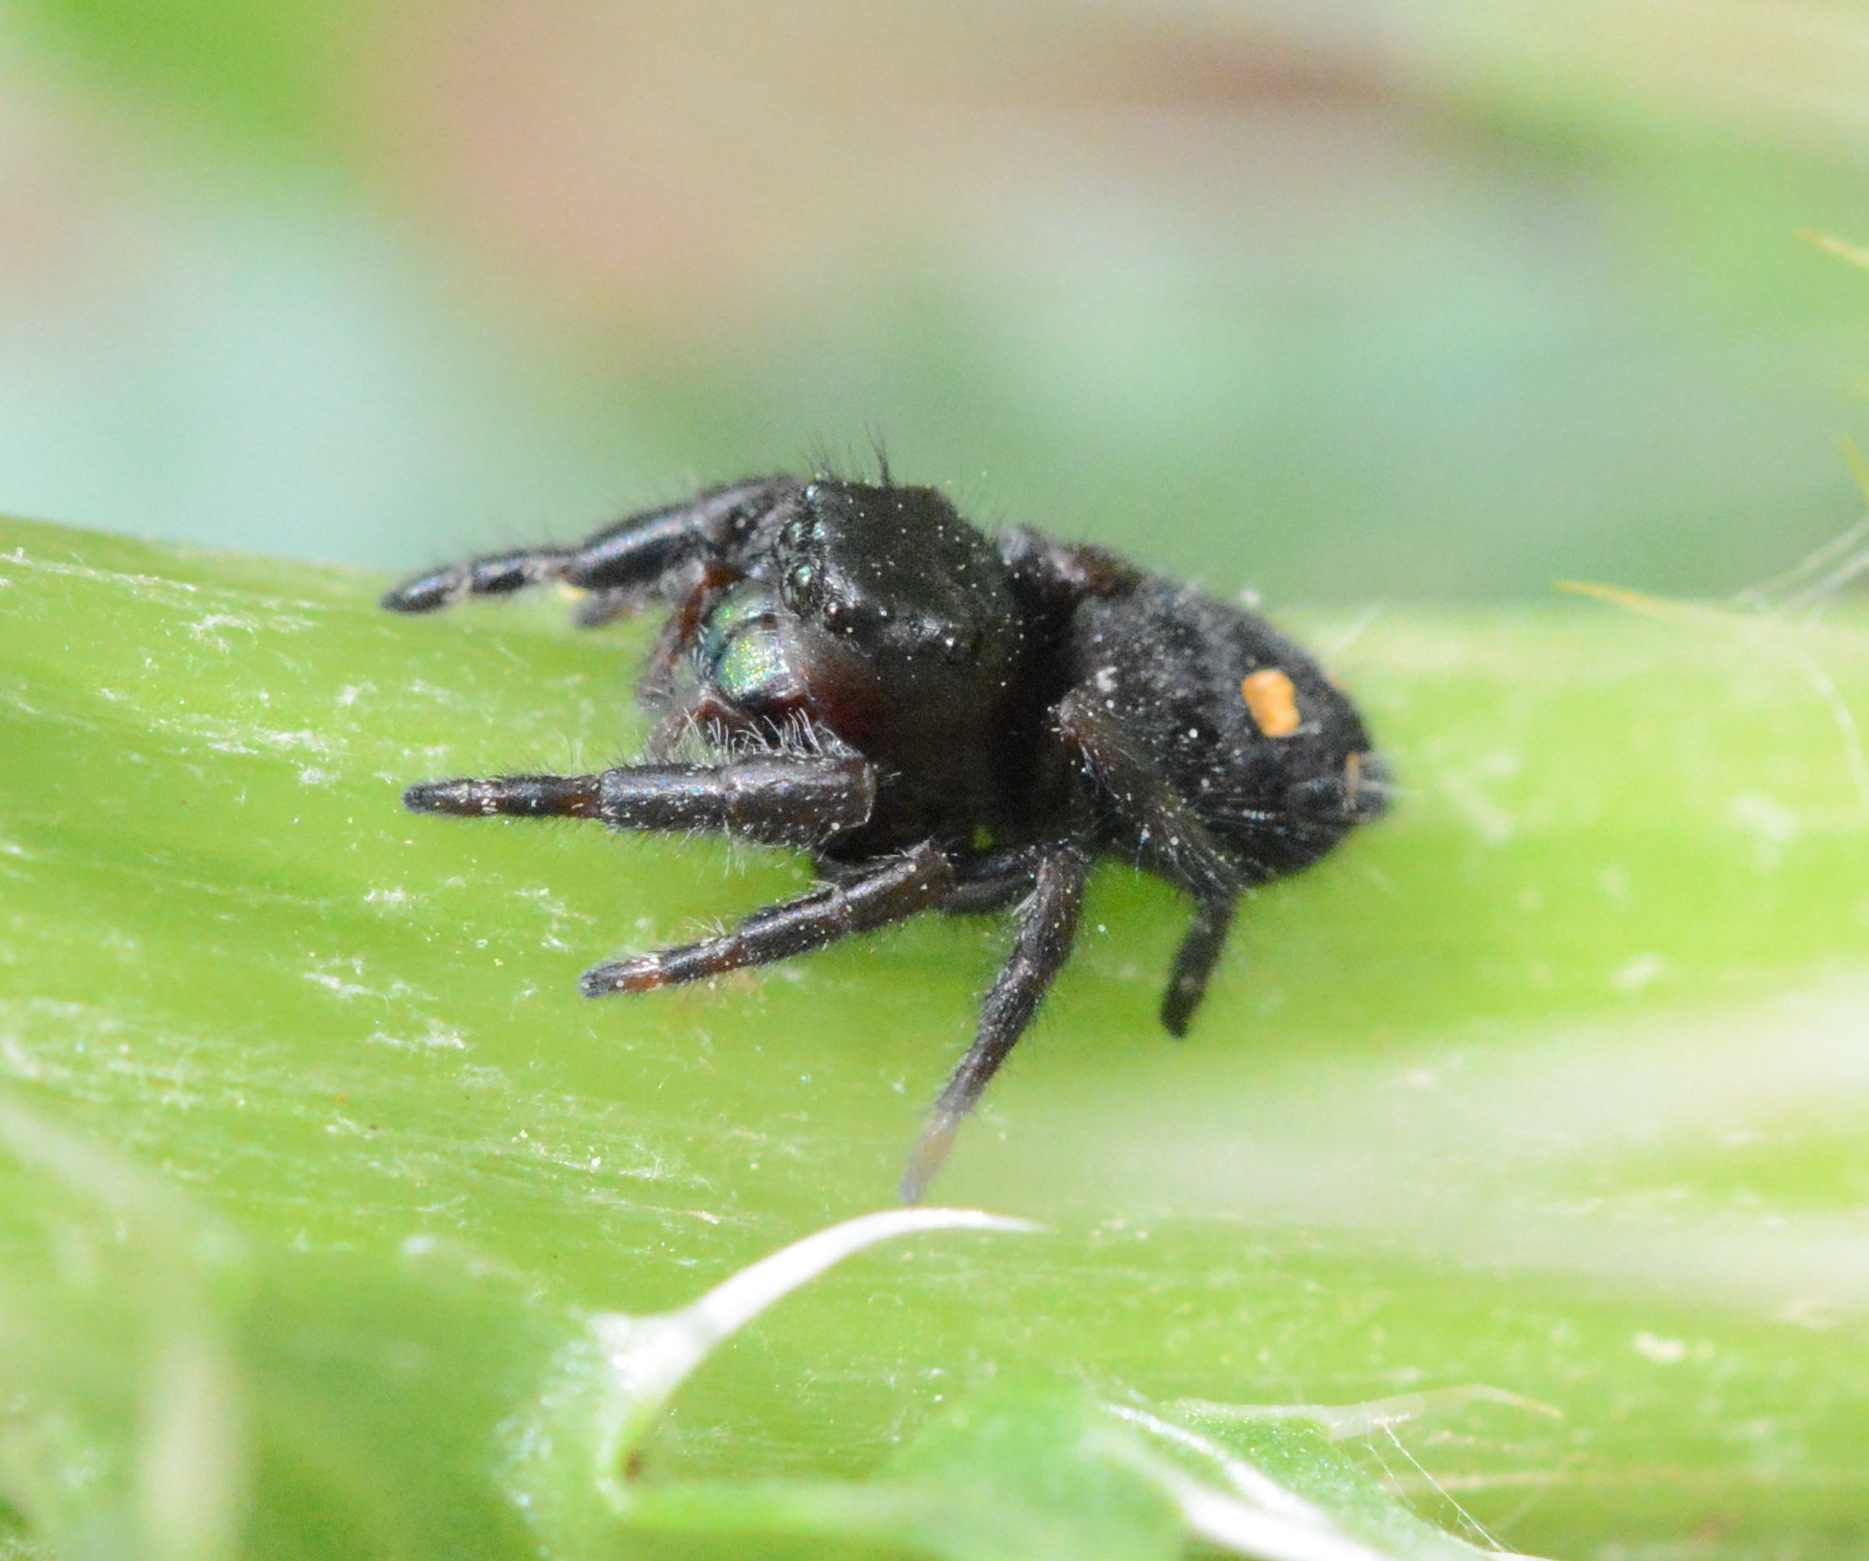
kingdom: Animalia
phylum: Arthropoda
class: Arachnida
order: Araneae
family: Salticidae
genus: Phidippus
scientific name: Phidippus audax
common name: Bold jumper
